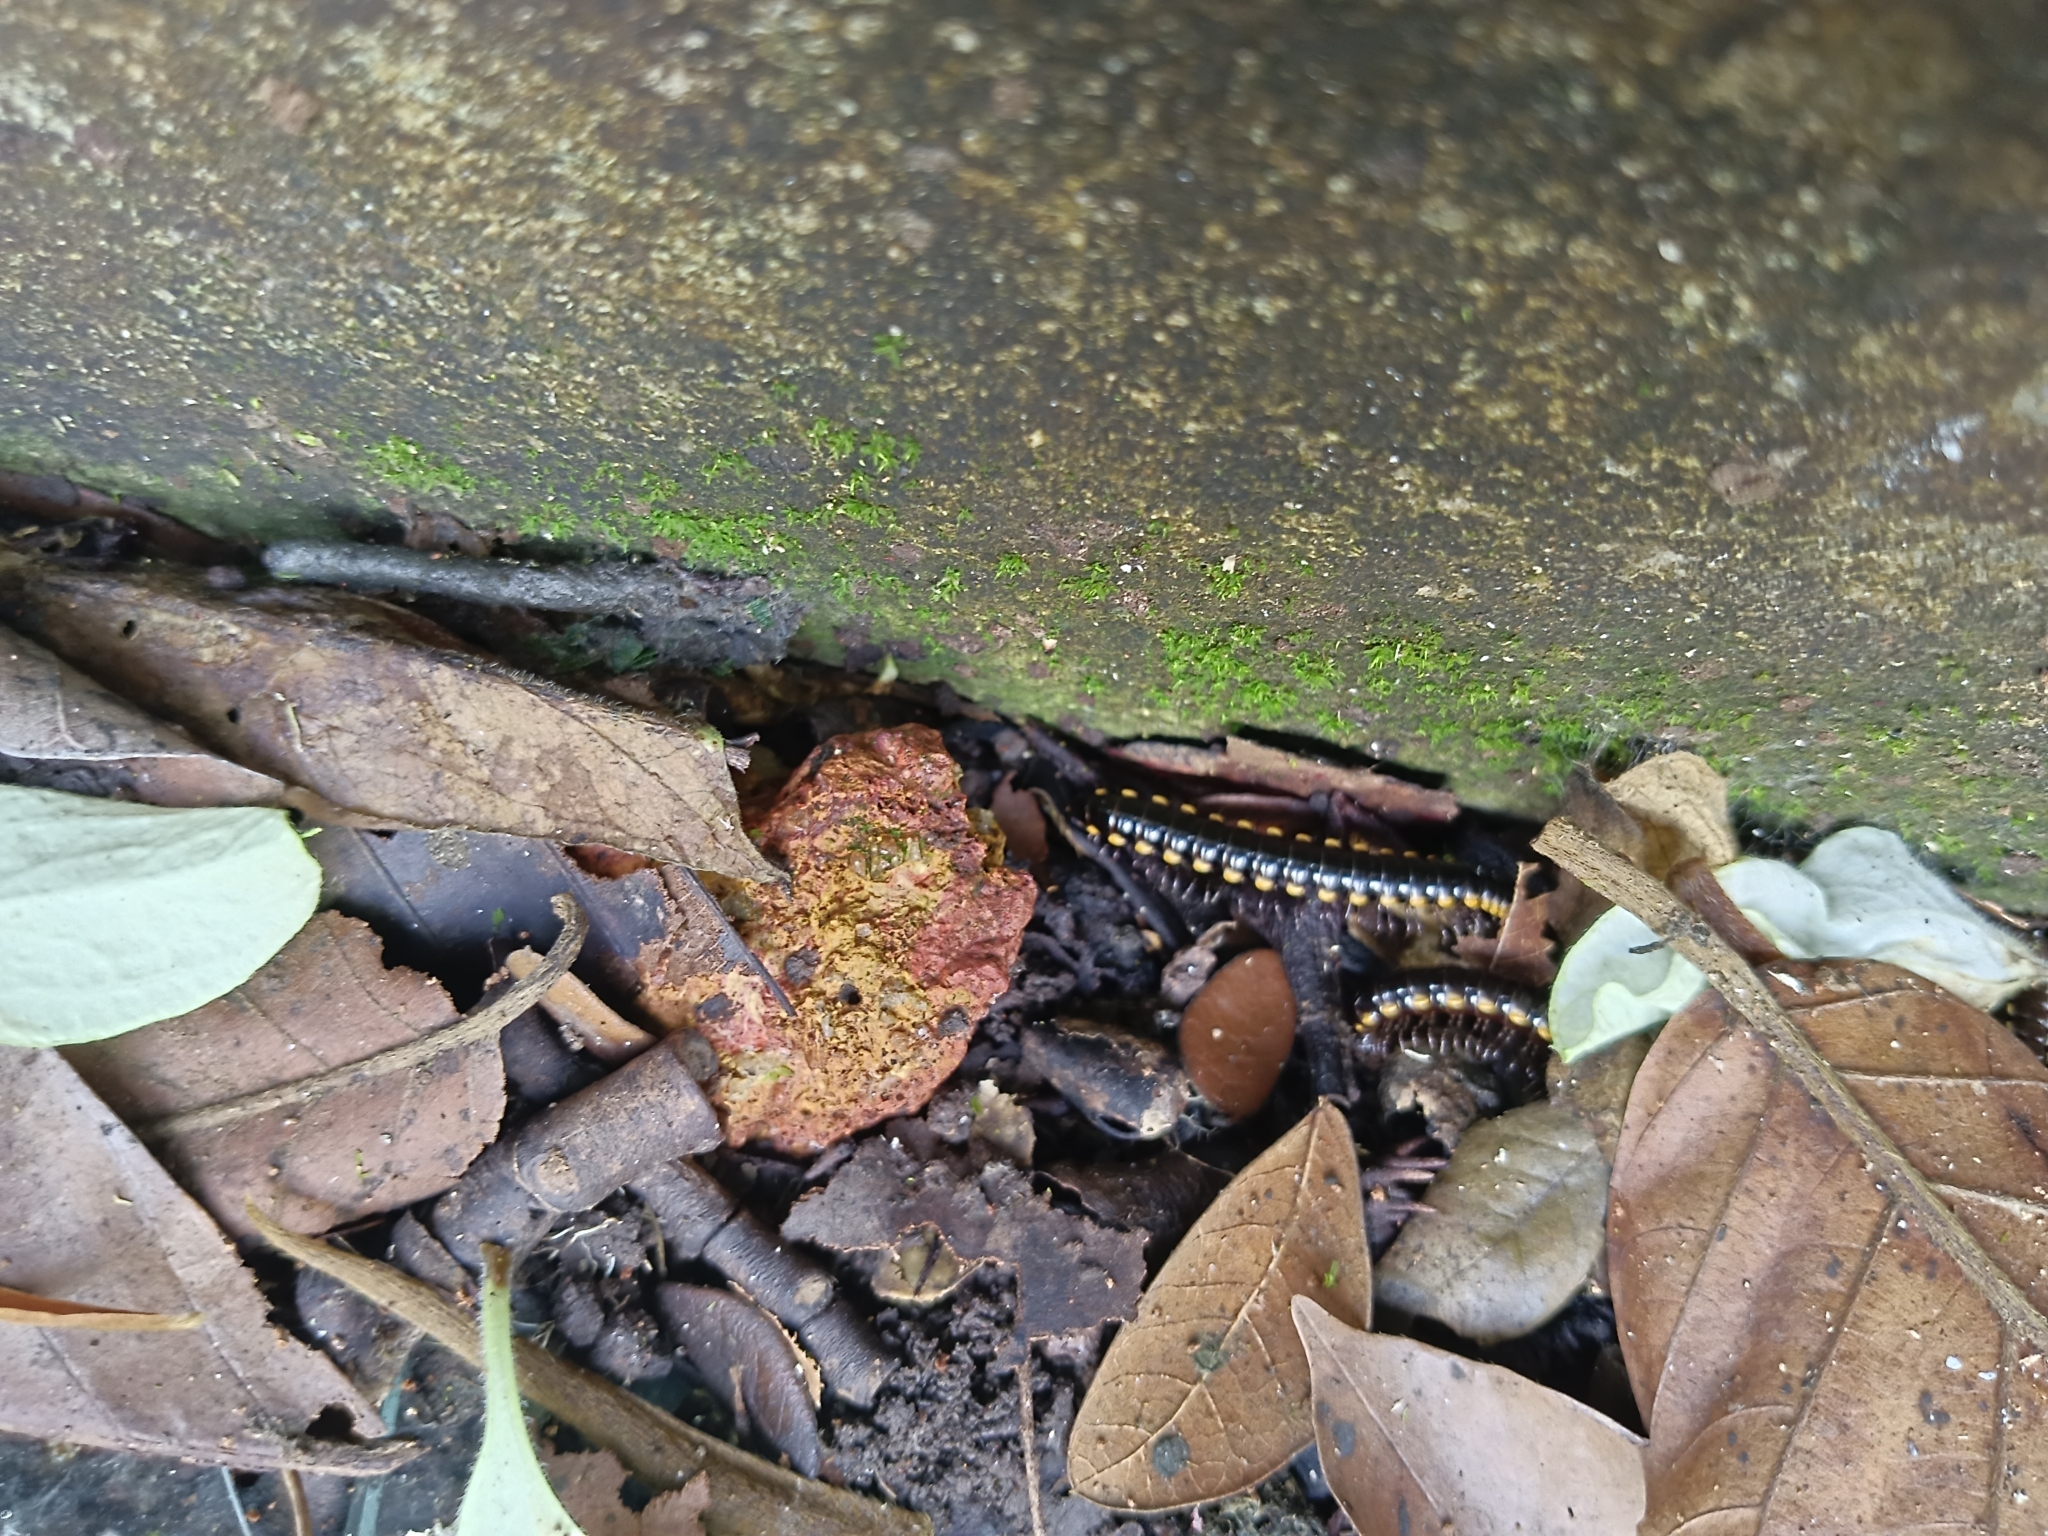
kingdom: Animalia
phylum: Arthropoda
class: Diplopoda
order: Polydesmida
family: Paradoxosomatidae
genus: Anoplodesmus
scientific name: Anoplodesmus saussurii
